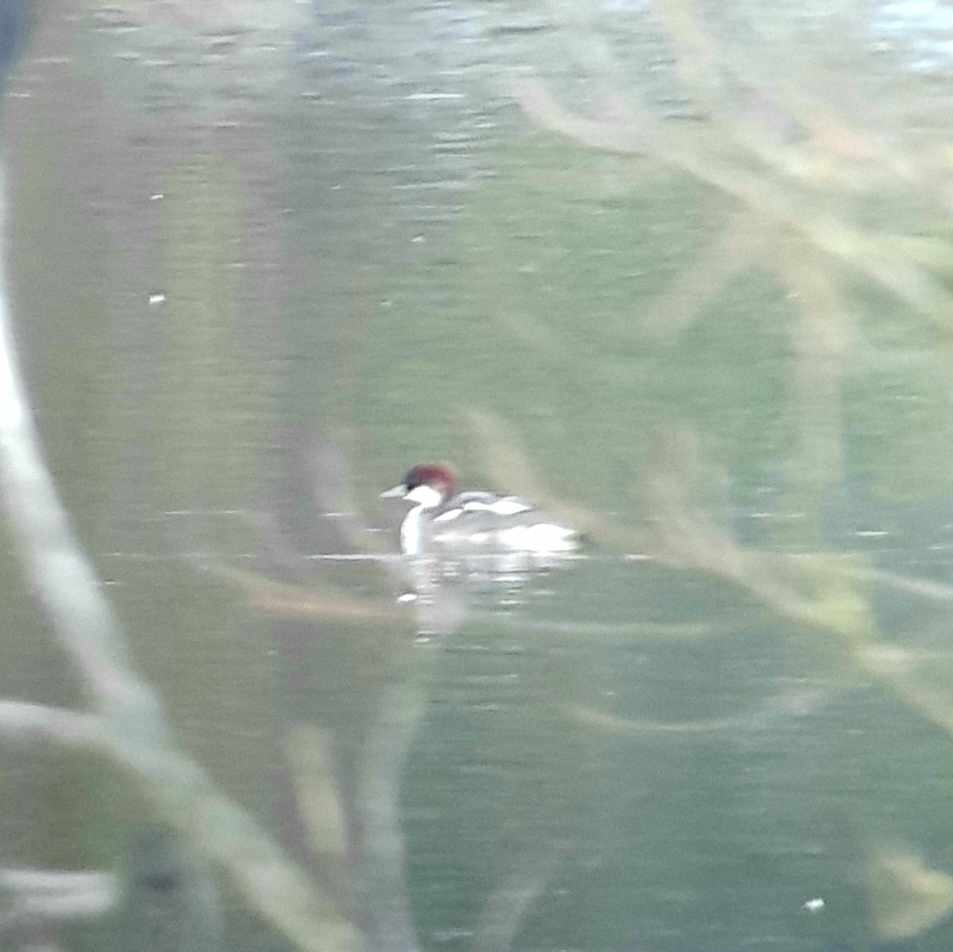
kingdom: Animalia
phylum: Chordata
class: Aves
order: Anseriformes
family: Anatidae
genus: Mergellus
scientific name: Mergellus albellus
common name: Smew
